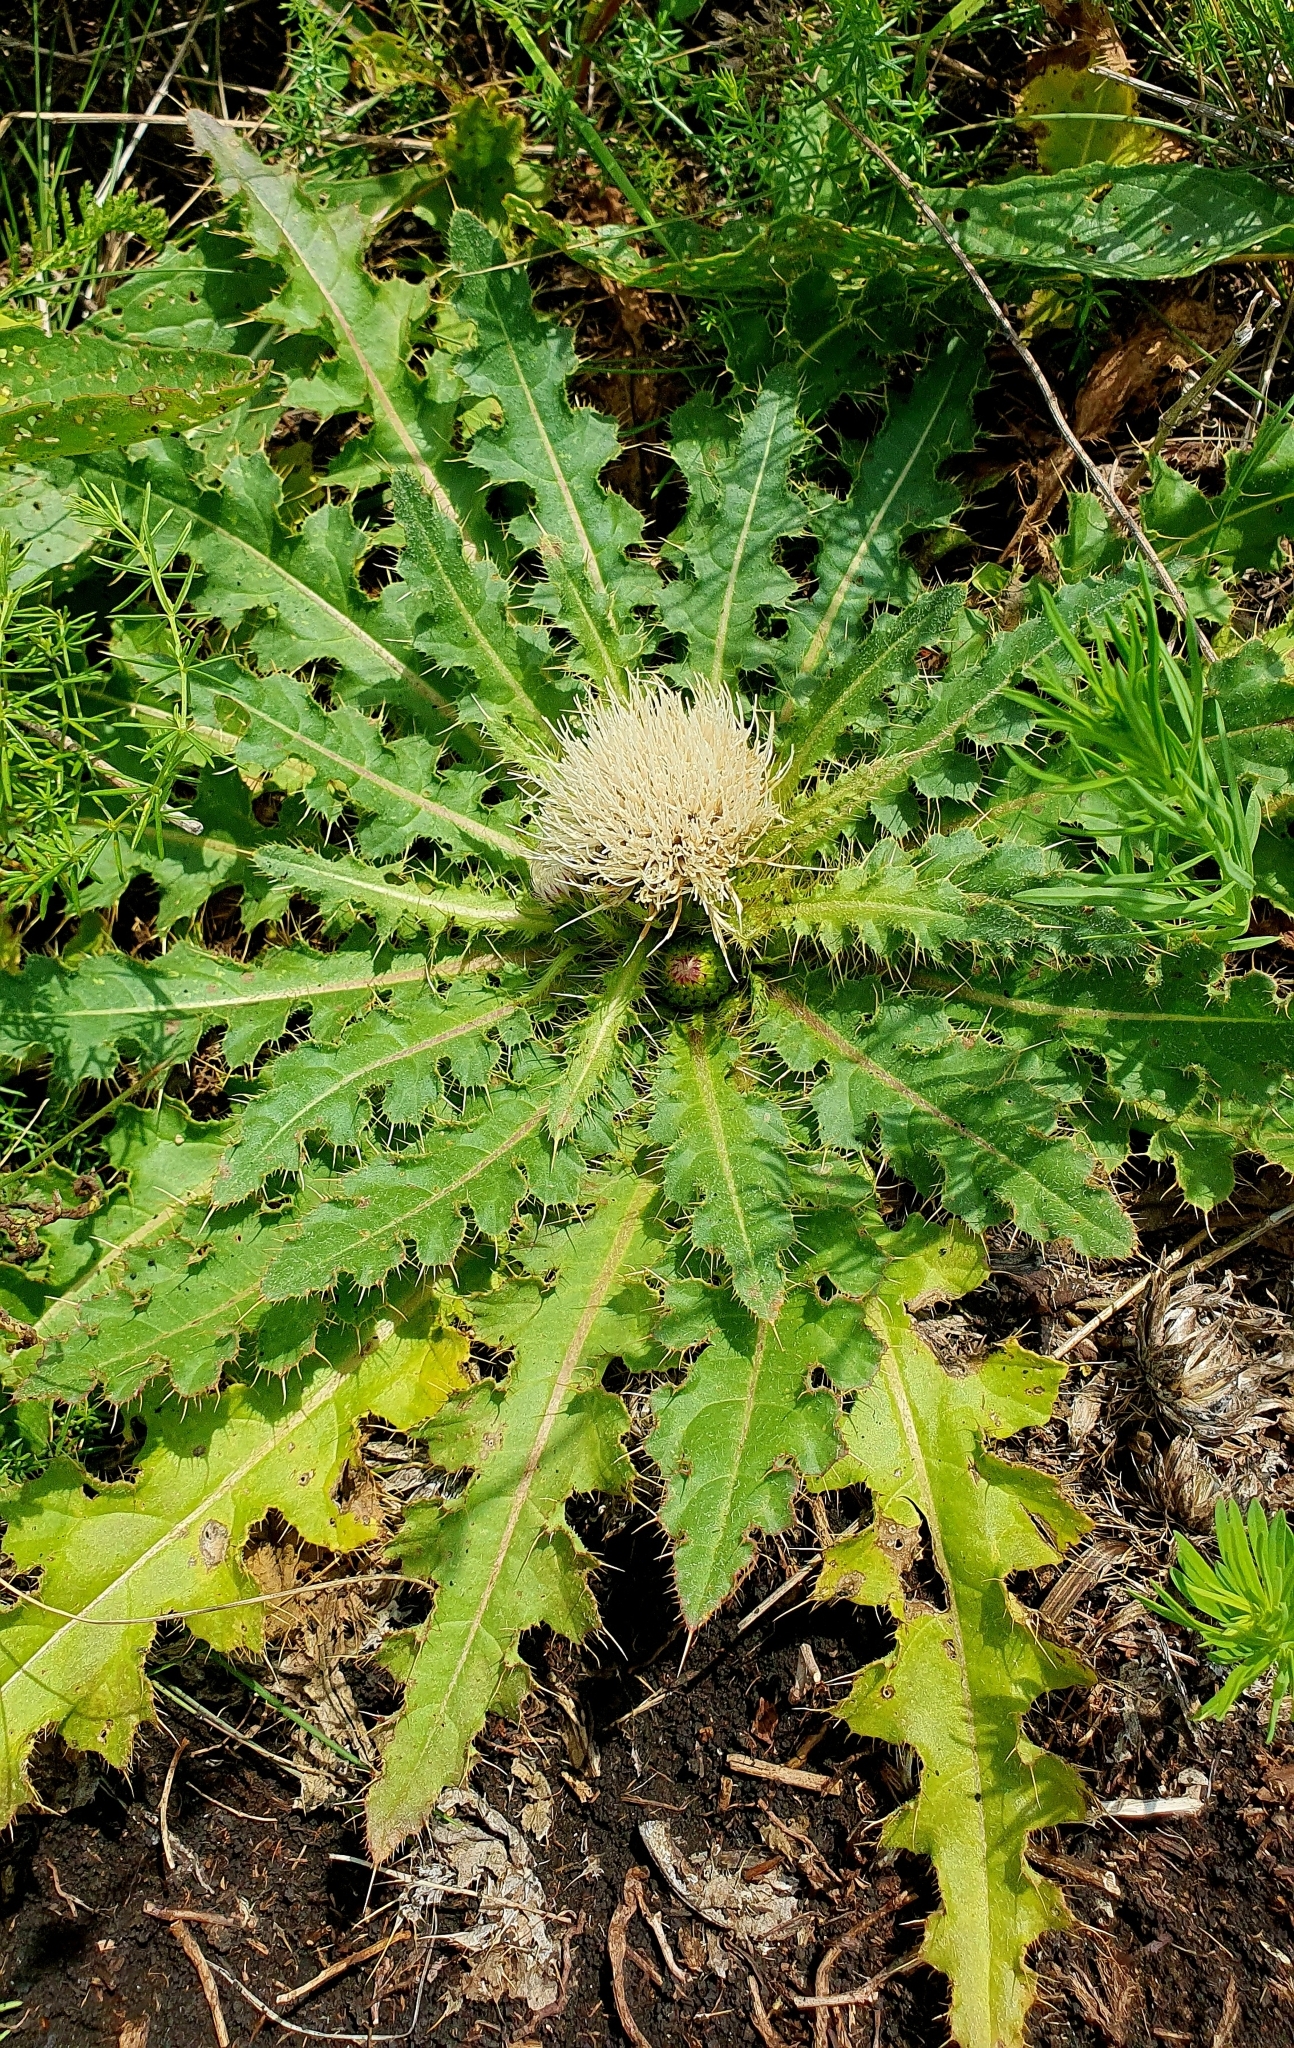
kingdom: Plantae
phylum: Tracheophyta
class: Magnoliopsida
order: Asterales
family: Asteraceae
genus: Cirsium
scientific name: Cirsium esculentum
